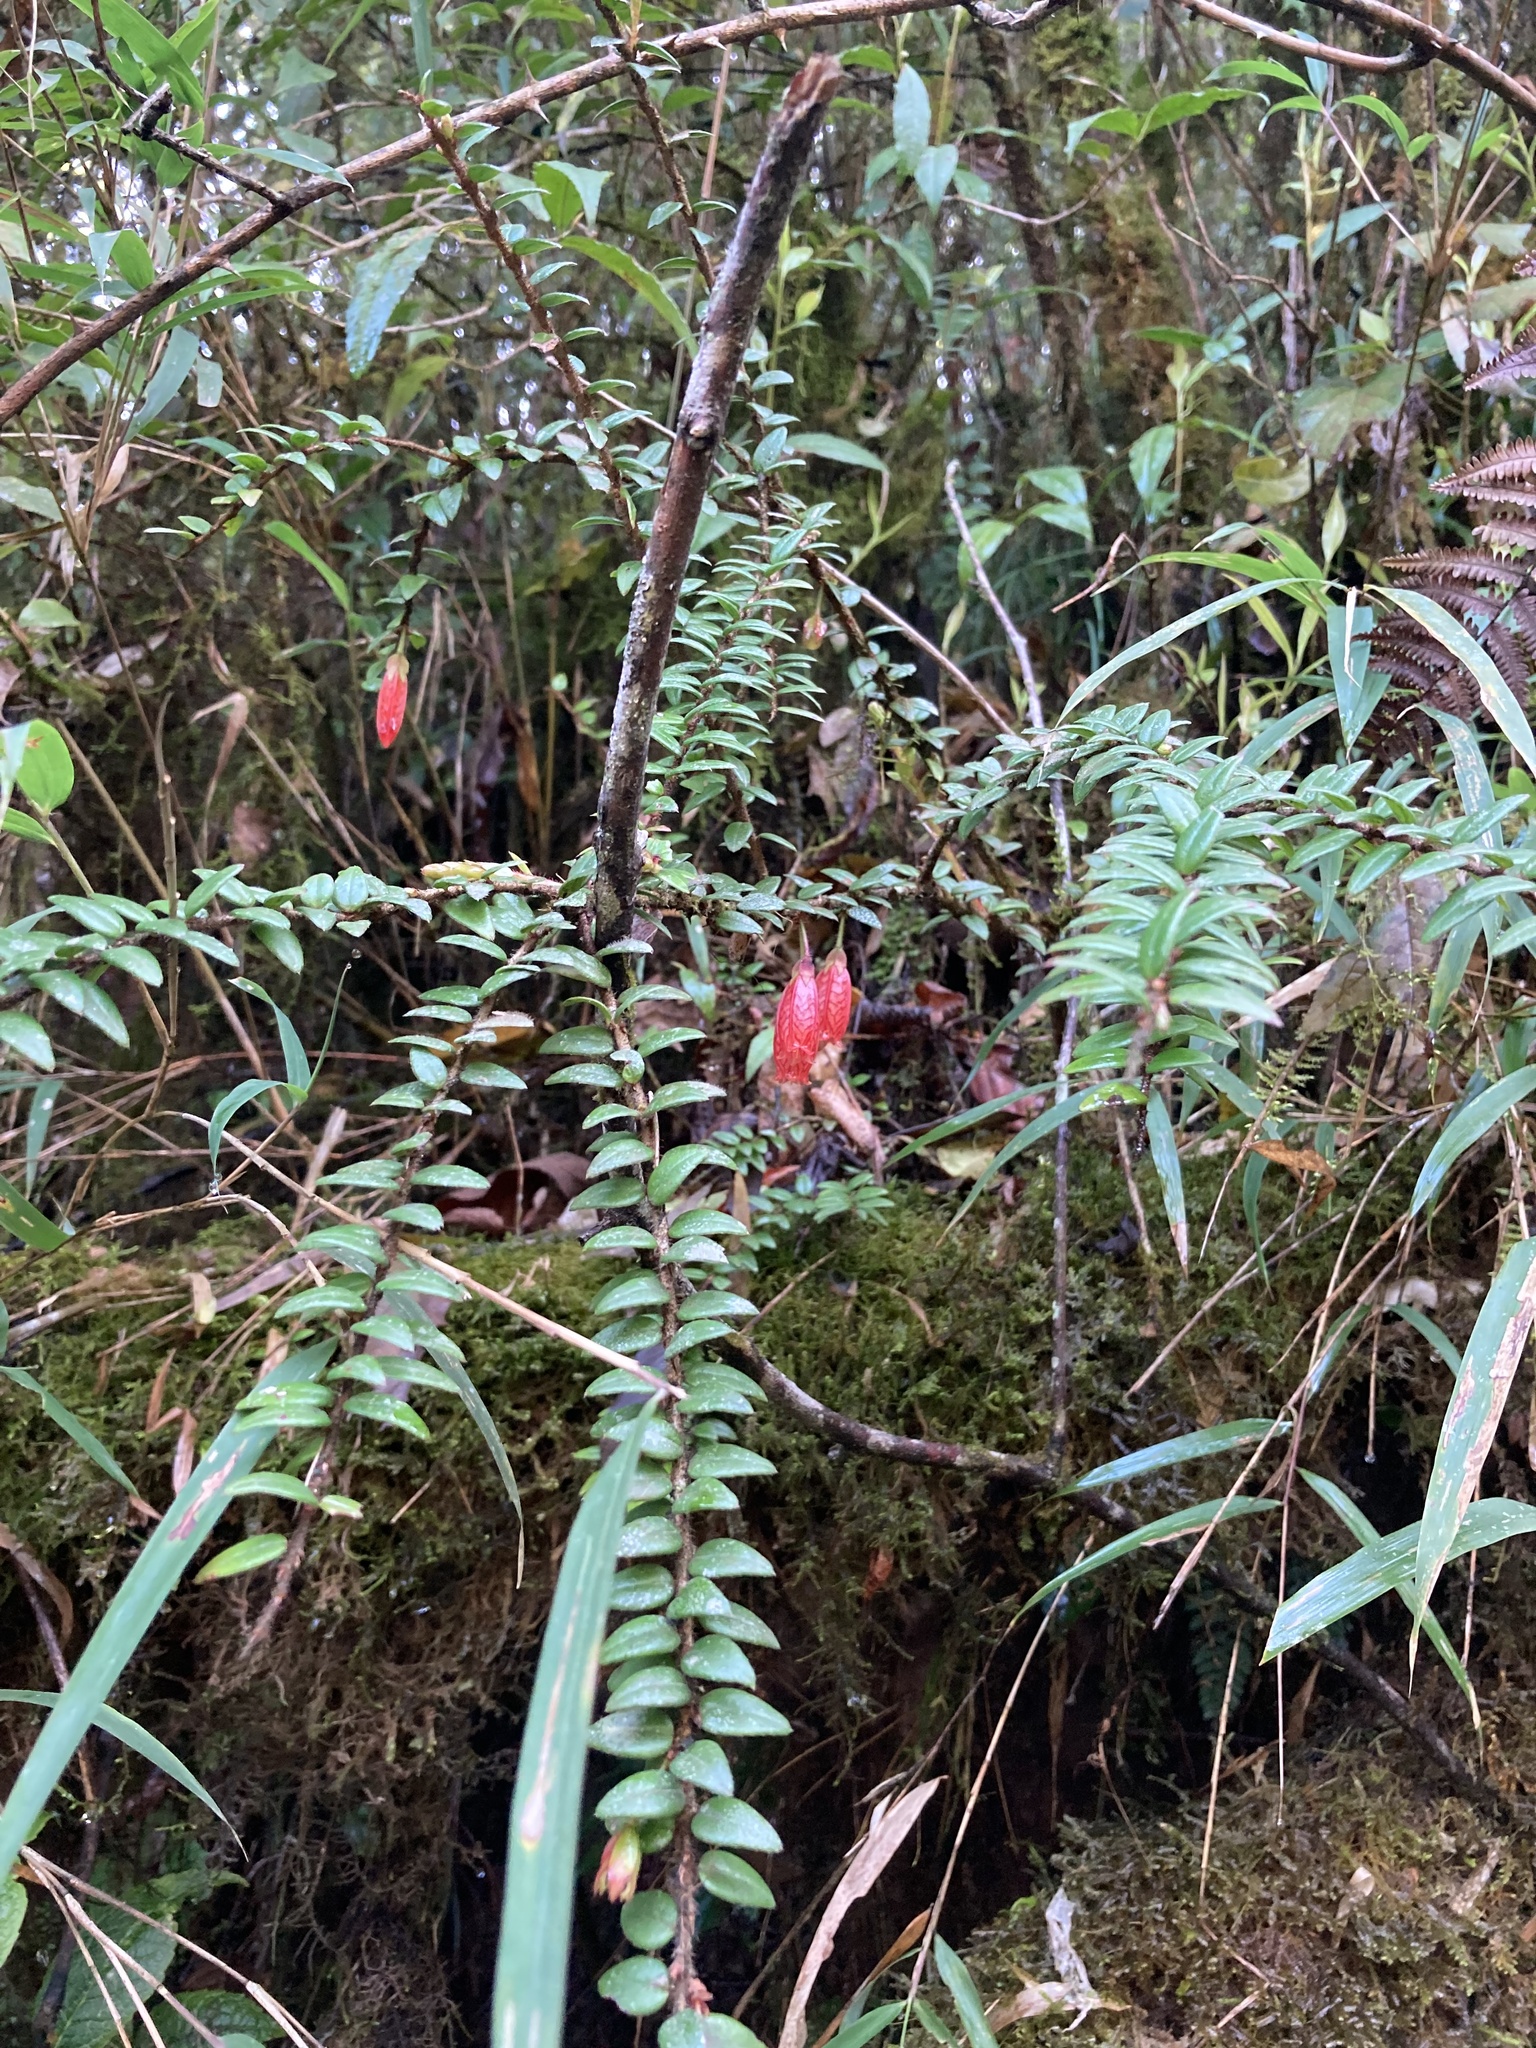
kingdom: Plantae
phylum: Tracheophyta
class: Magnoliopsida
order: Ericales
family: Ericaceae
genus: Agapetes
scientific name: Agapetes serpens
